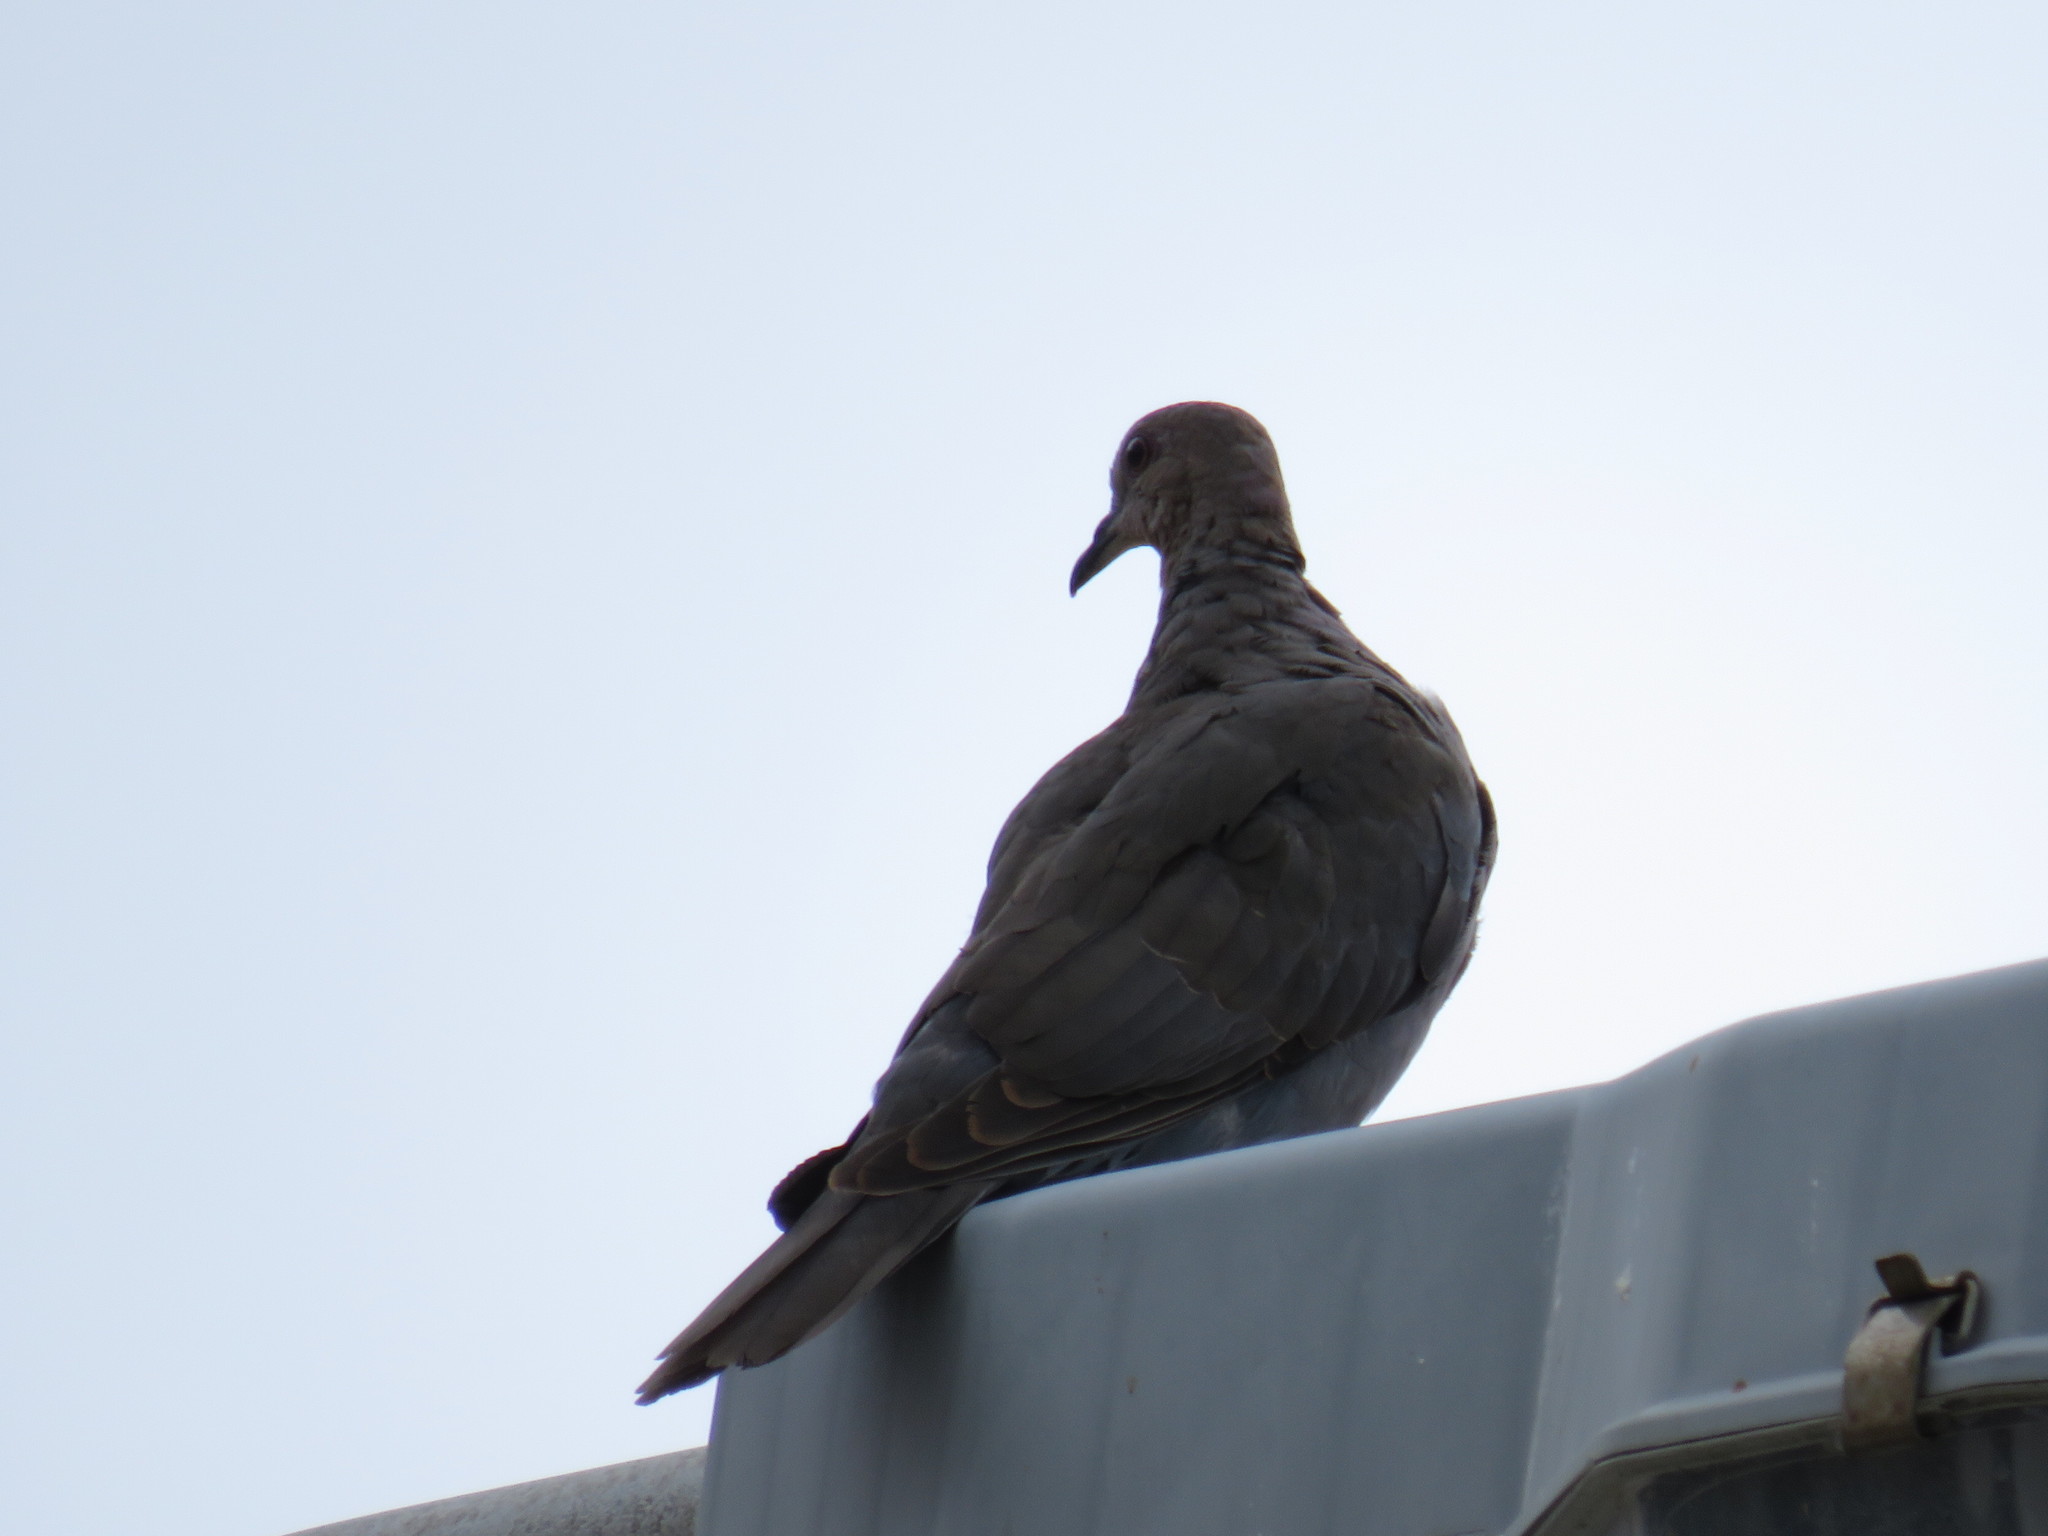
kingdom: Animalia
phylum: Chordata
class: Aves
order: Columbiformes
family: Columbidae
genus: Streptopelia
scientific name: Streptopelia semitorquata
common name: Red-eyed dove
